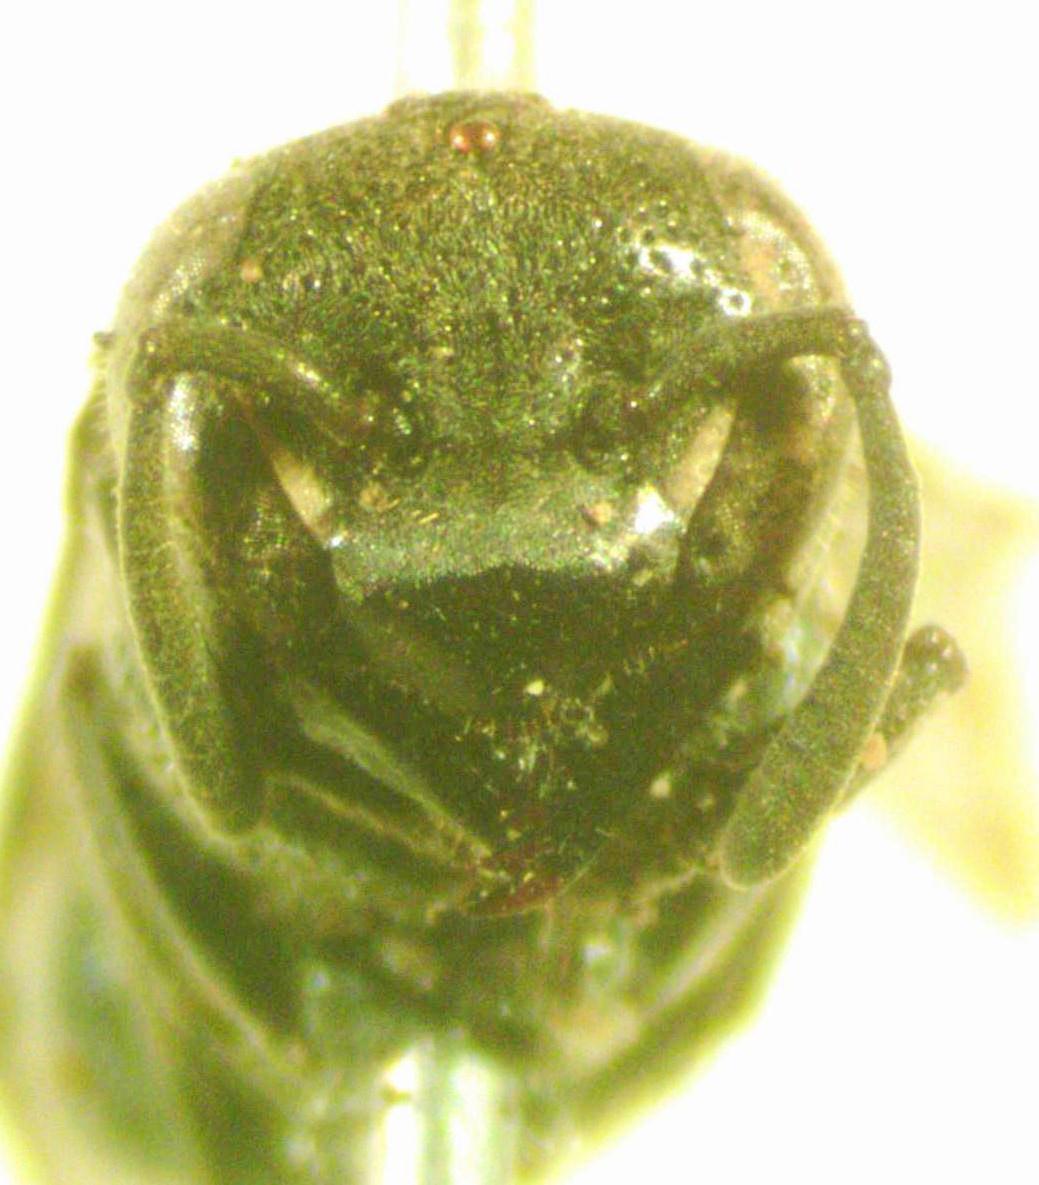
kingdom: Animalia
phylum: Arthropoda
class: Insecta
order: Hymenoptera
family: Vespidae
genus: Brachygastra
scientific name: Brachygastra augusti
